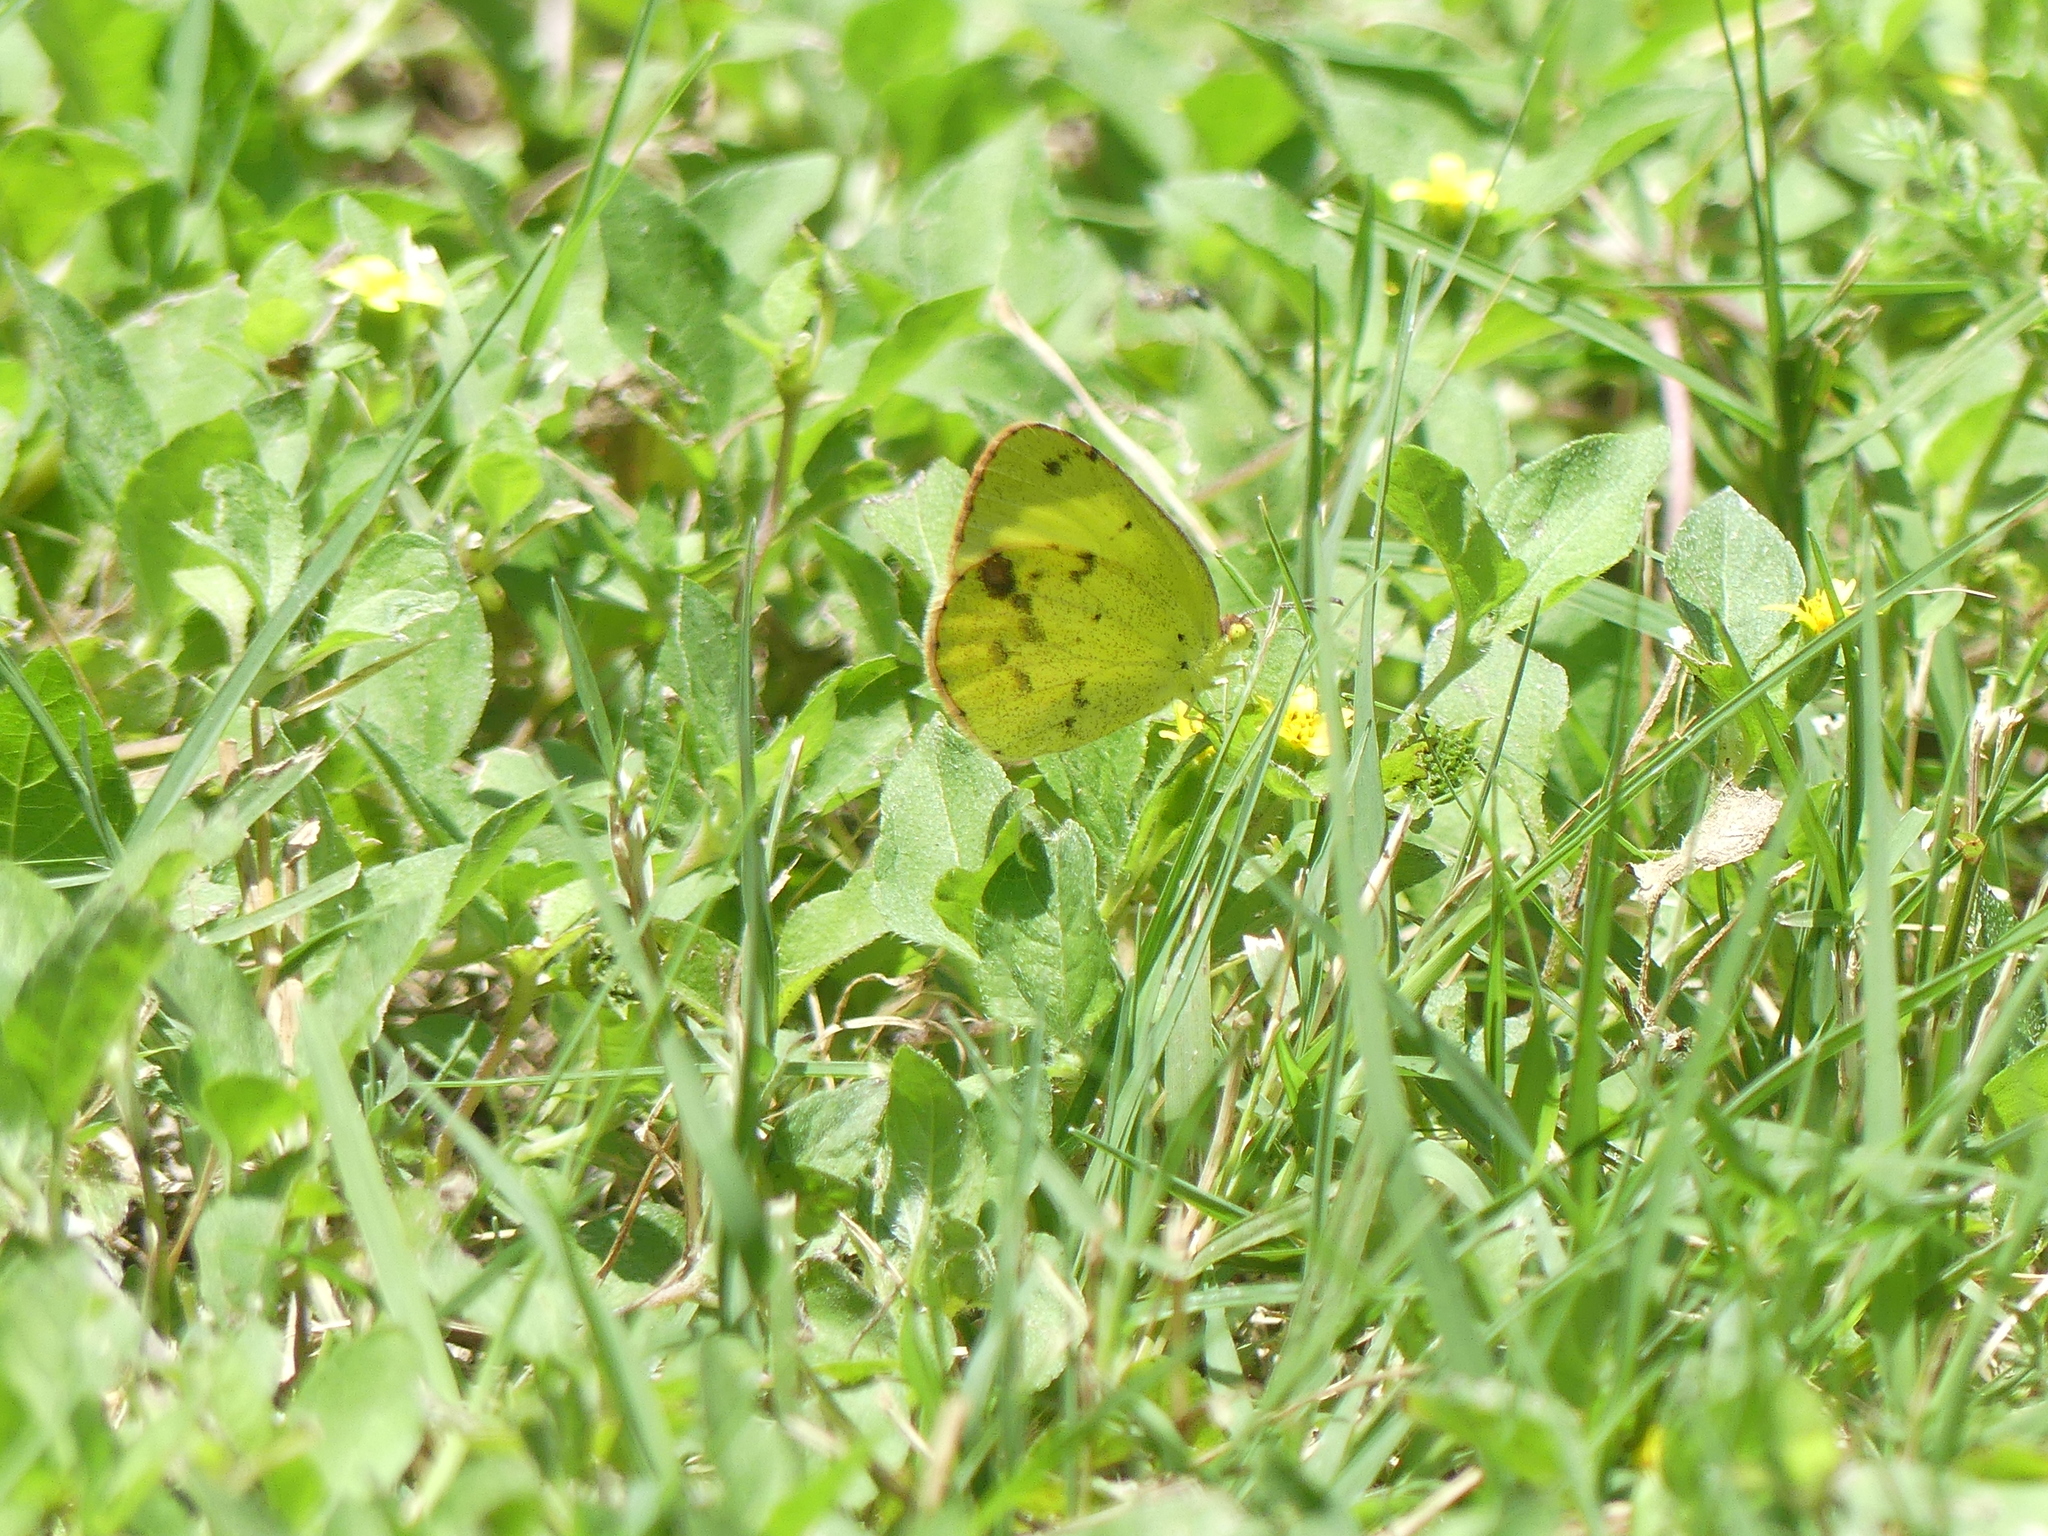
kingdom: Animalia
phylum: Arthropoda
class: Insecta
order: Lepidoptera
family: Pieridae
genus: Pyrisitia
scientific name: Pyrisitia lisa
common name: Little yellow
